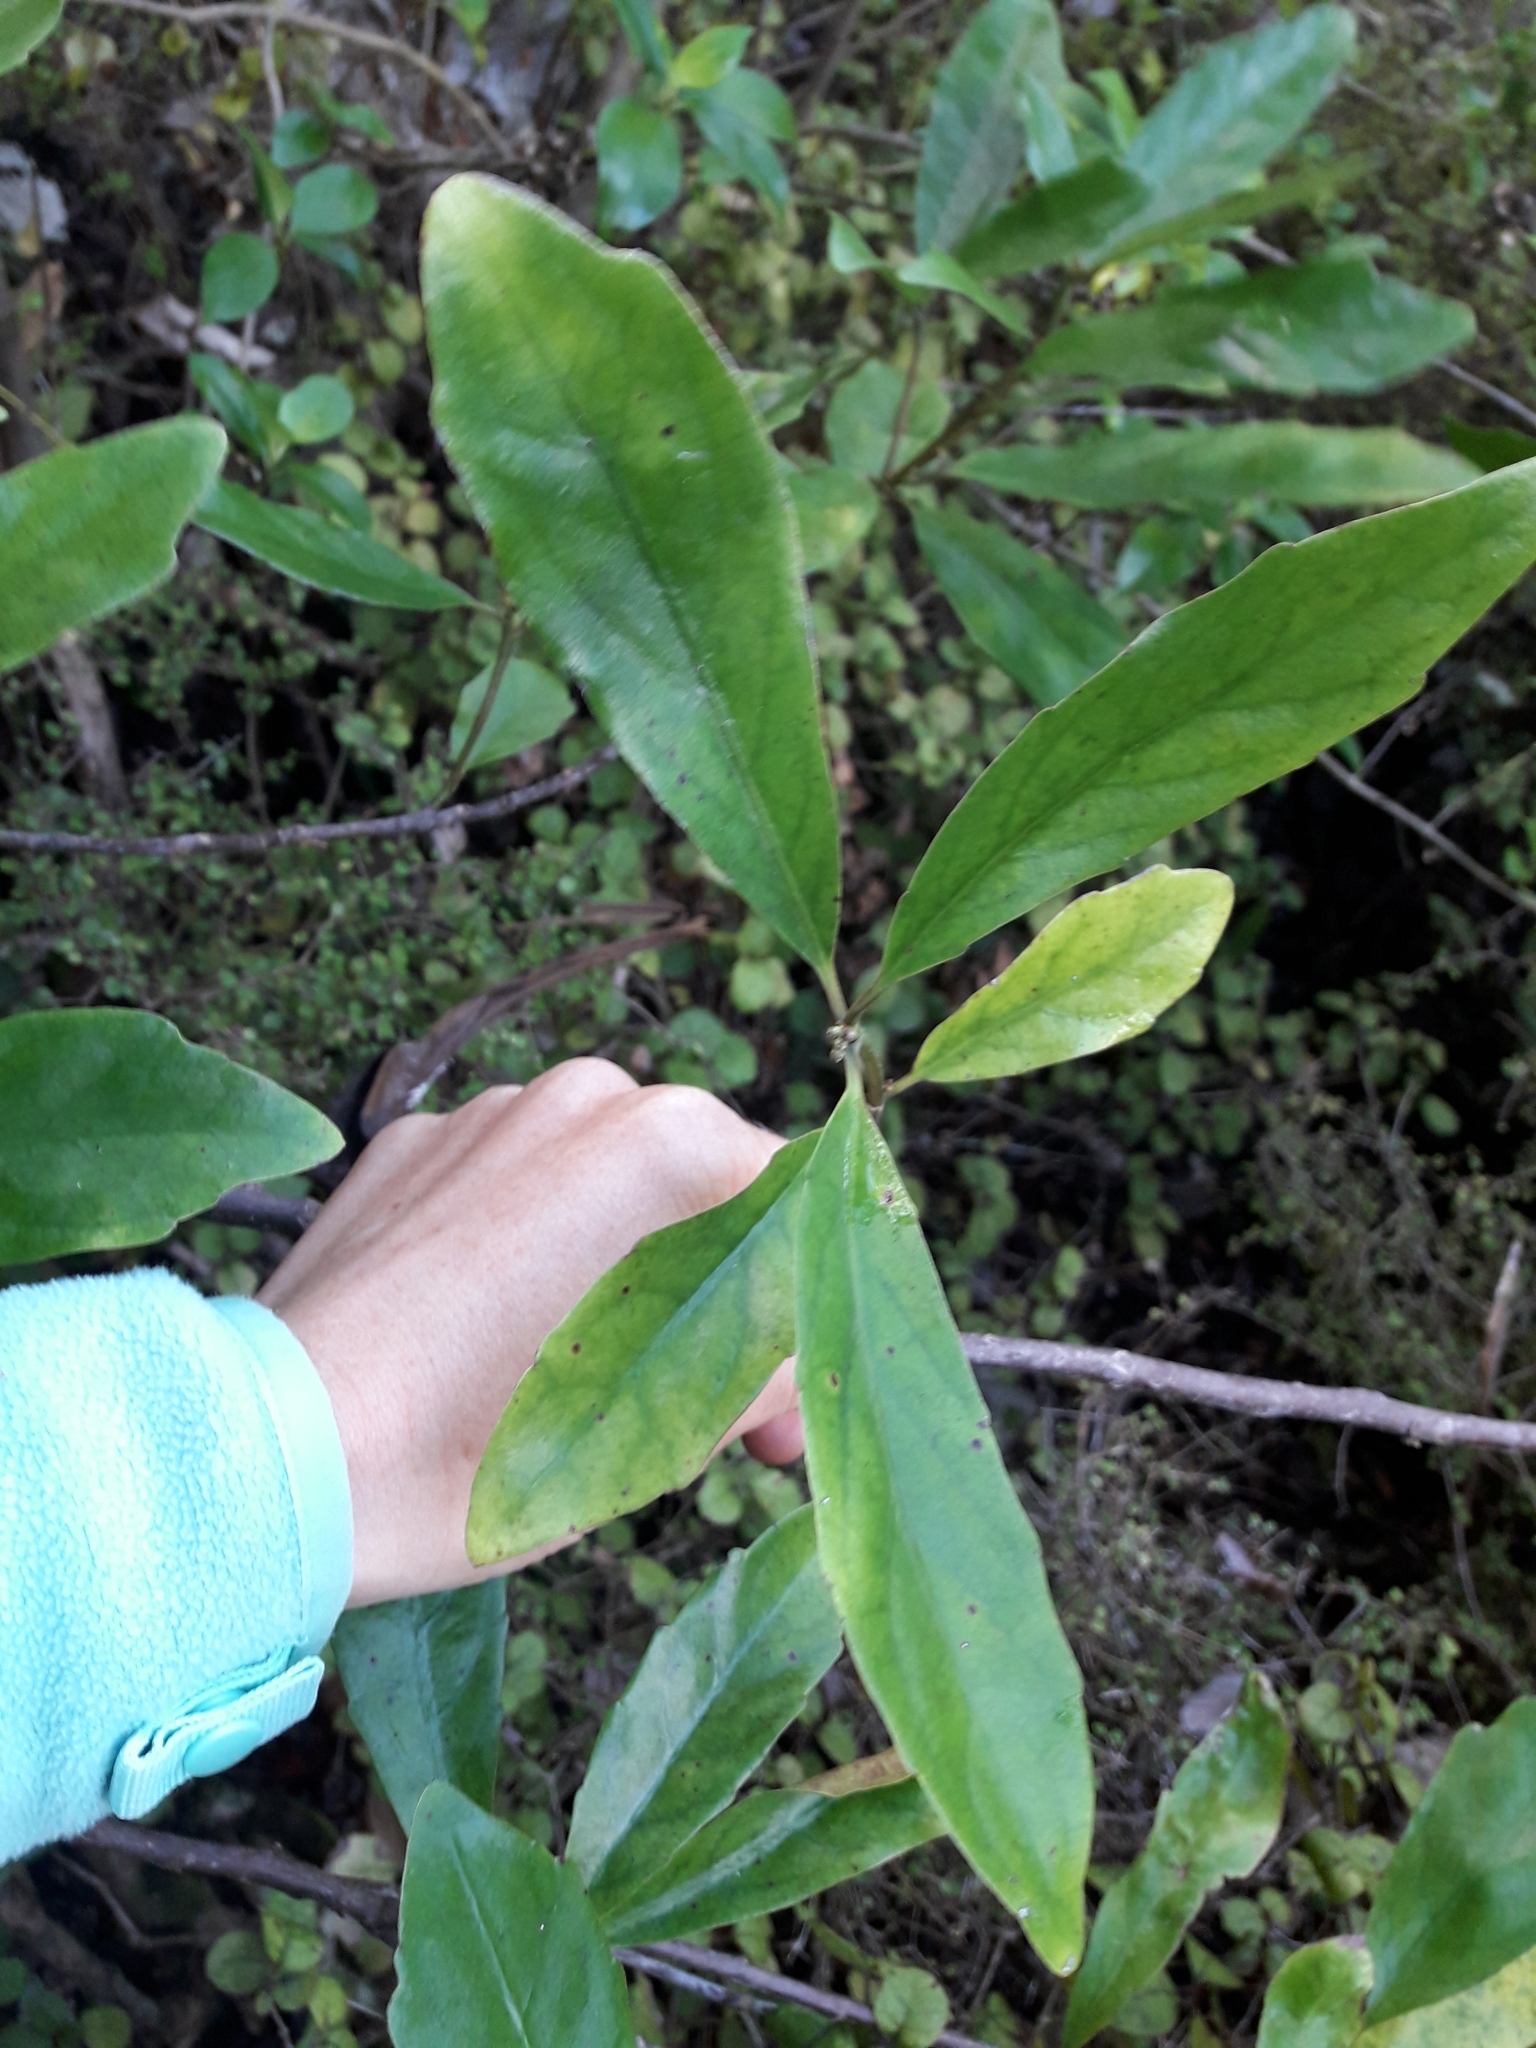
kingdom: Plantae
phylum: Tracheophyta
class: Magnoliopsida
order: Asterales
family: Alseuosmiaceae
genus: Alseuosmia
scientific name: Alseuosmia macrophylla
